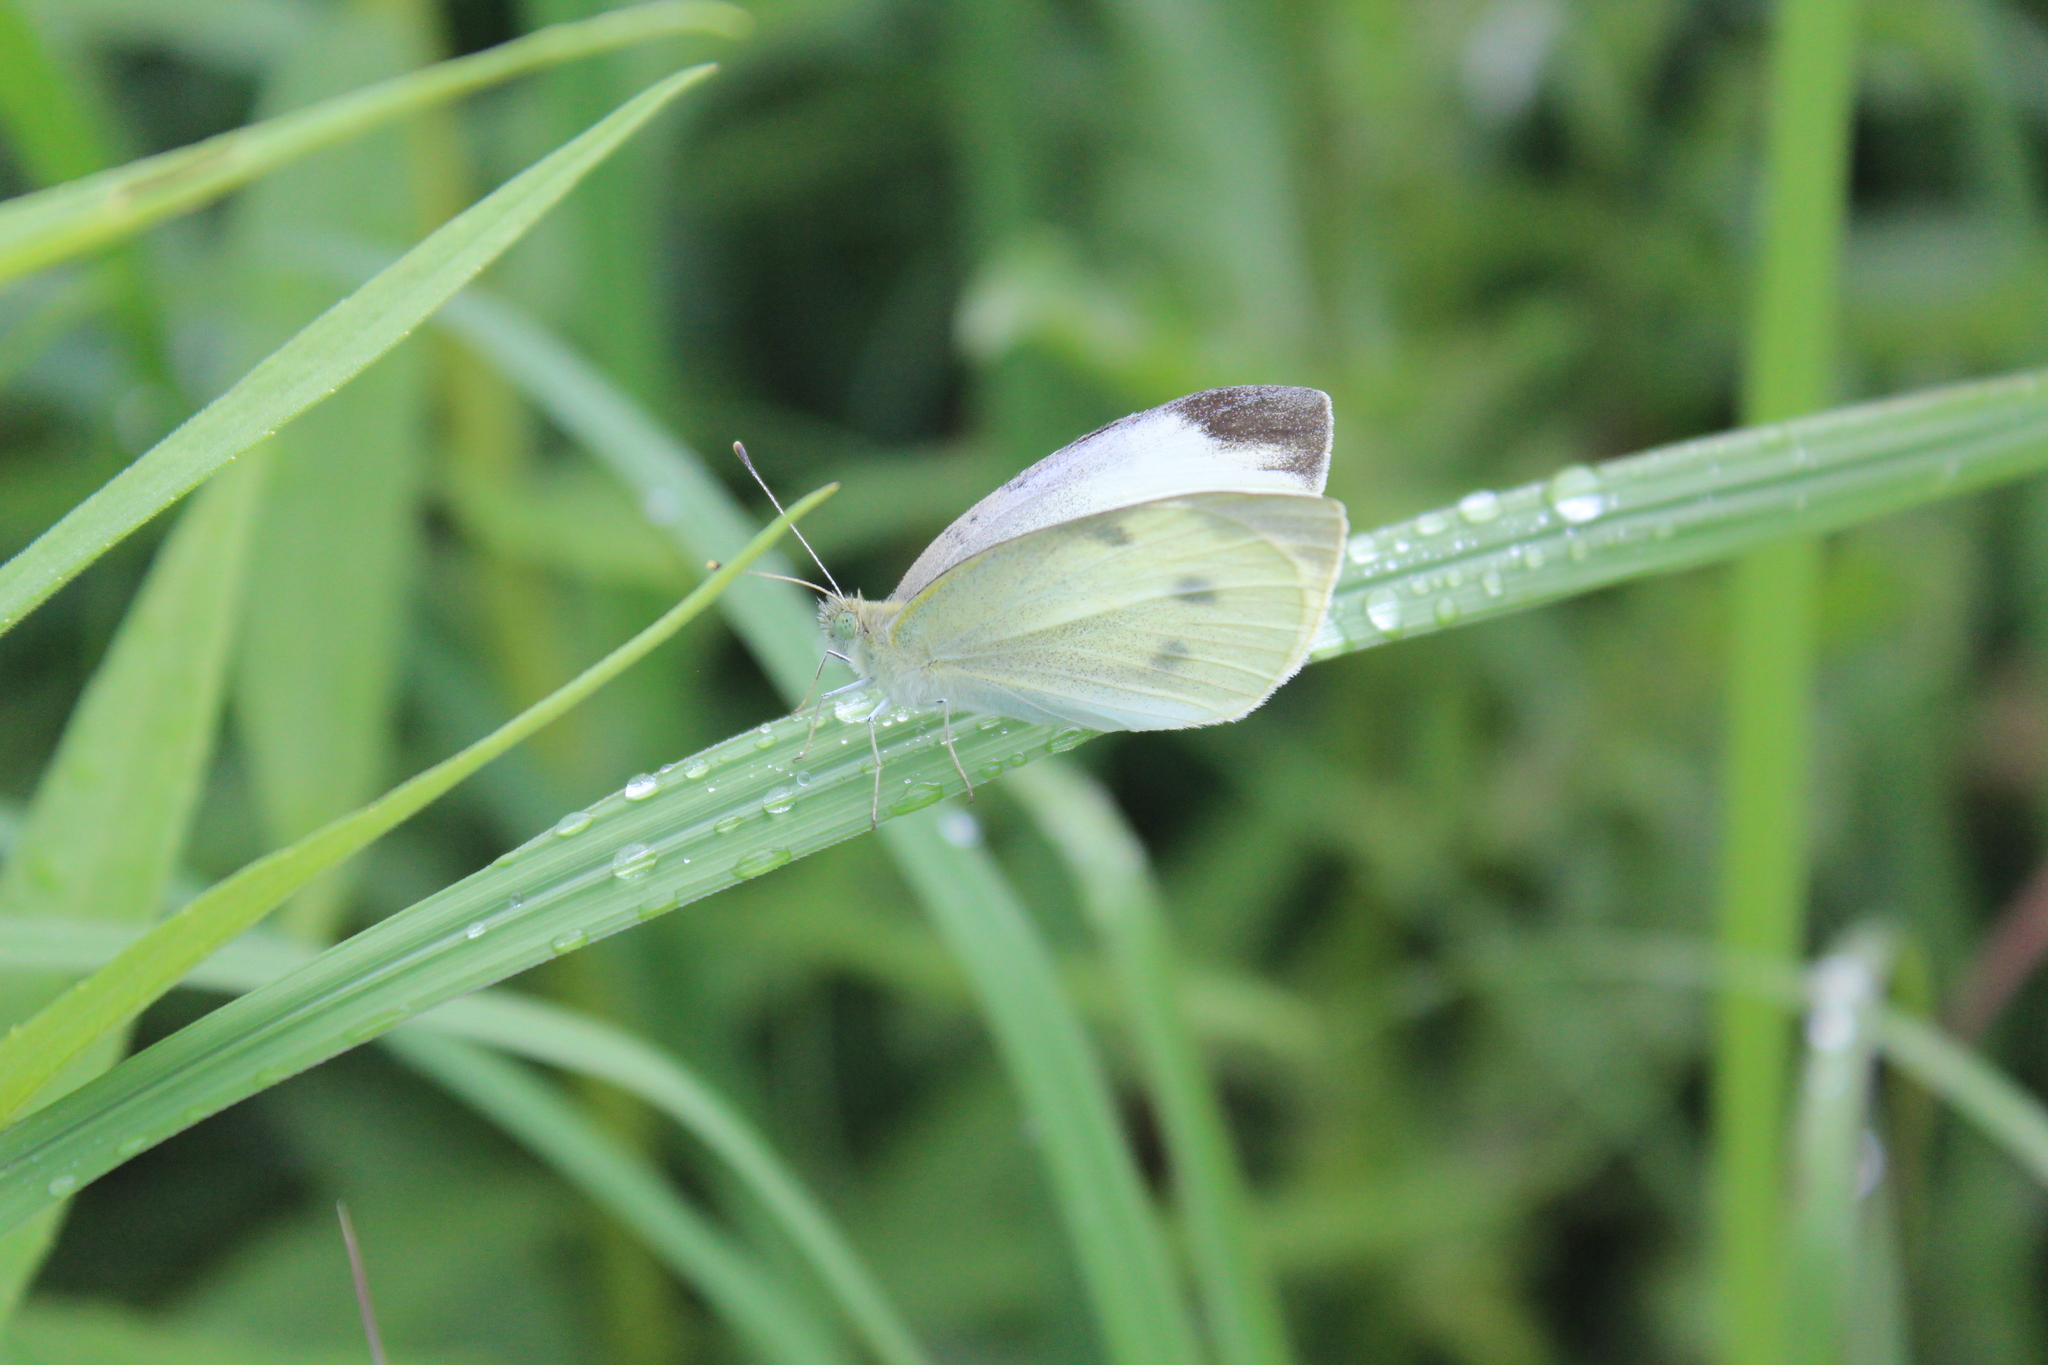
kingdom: Animalia
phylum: Arthropoda
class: Insecta
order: Lepidoptera
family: Pieridae
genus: Pieris
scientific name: Pieris rapae
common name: Small white
